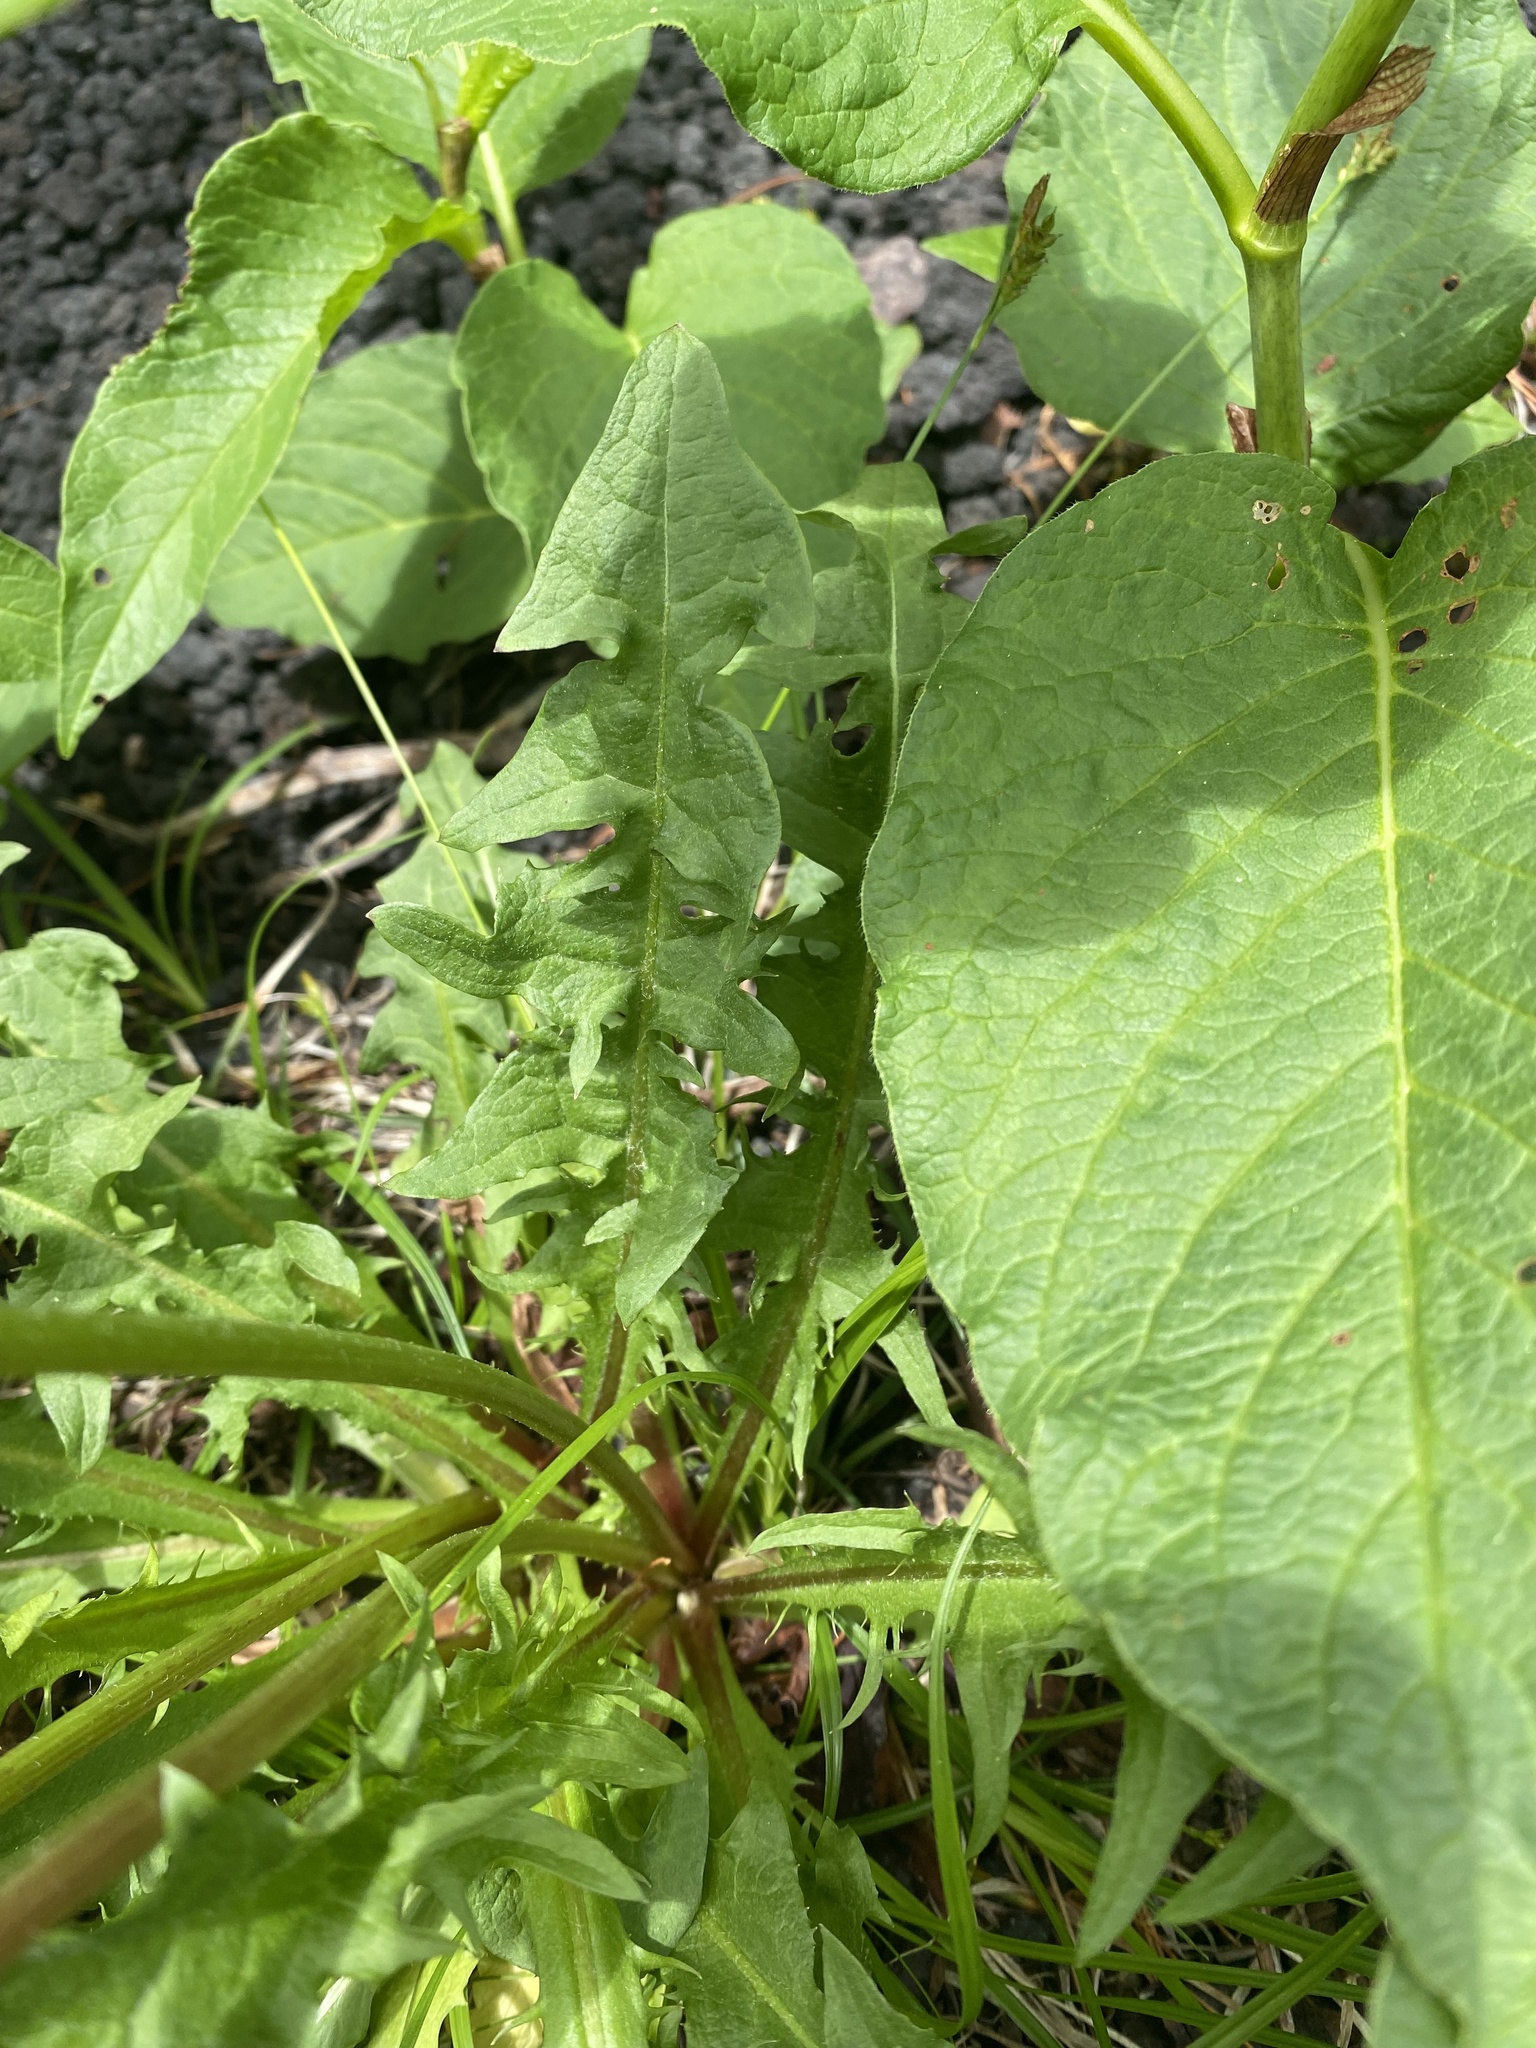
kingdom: Plantae
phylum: Tracheophyta
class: Magnoliopsida
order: Asterales
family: Asteraceae
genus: Taraxacum
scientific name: Taraxacum officinale
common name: Common dandelion
